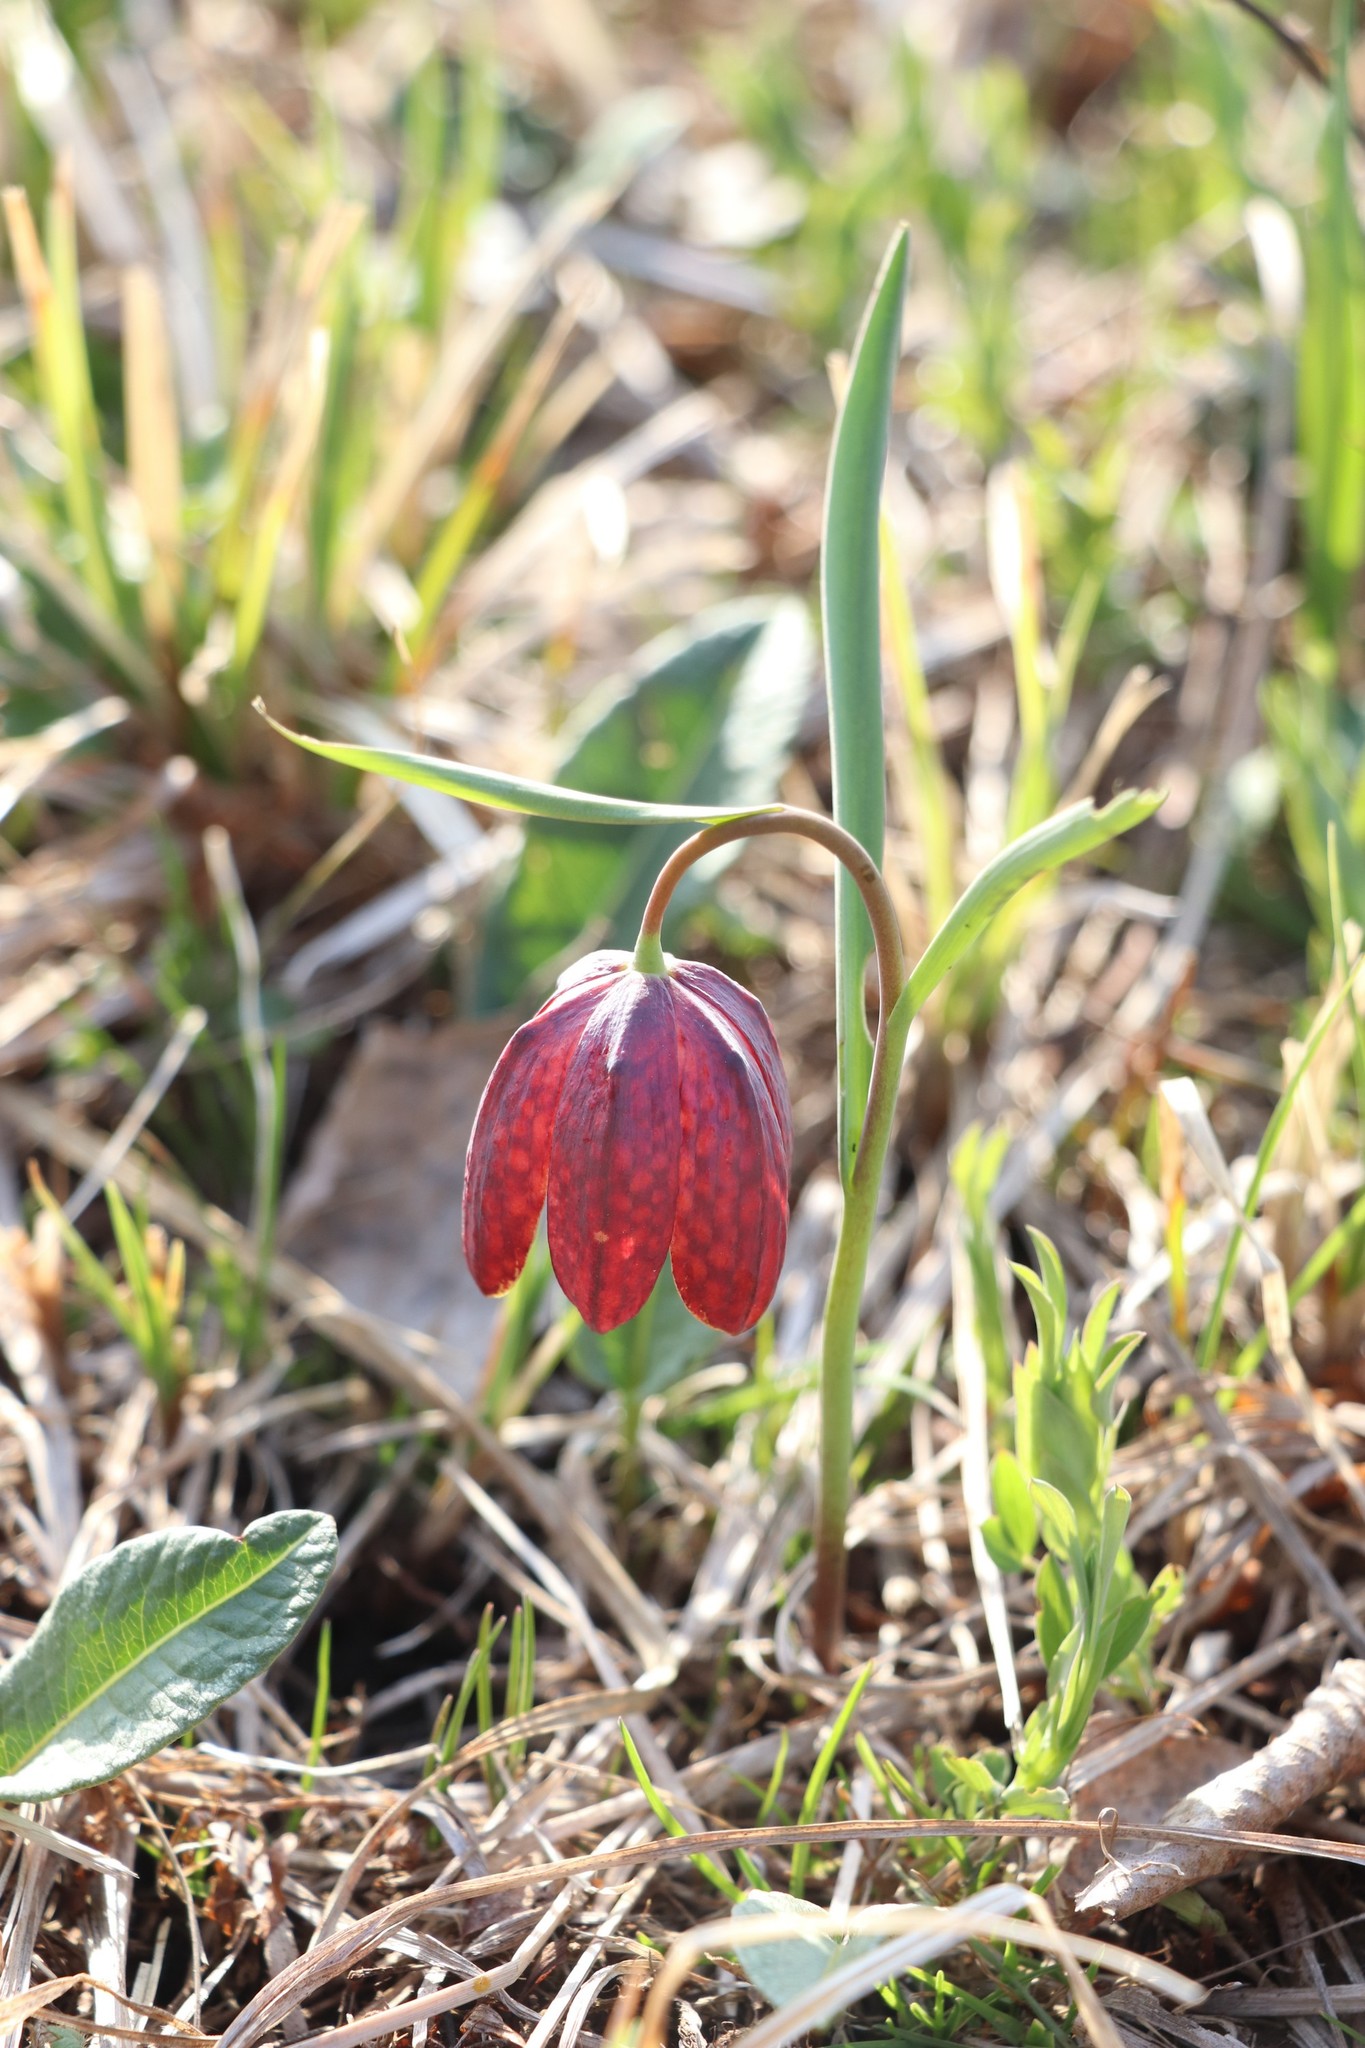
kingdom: Plantae
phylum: Tracheophyta
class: Liliopsida
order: Liliales
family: Liliaceae
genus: Fritillaria
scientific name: Fritillaria meleagris
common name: Fritillary
